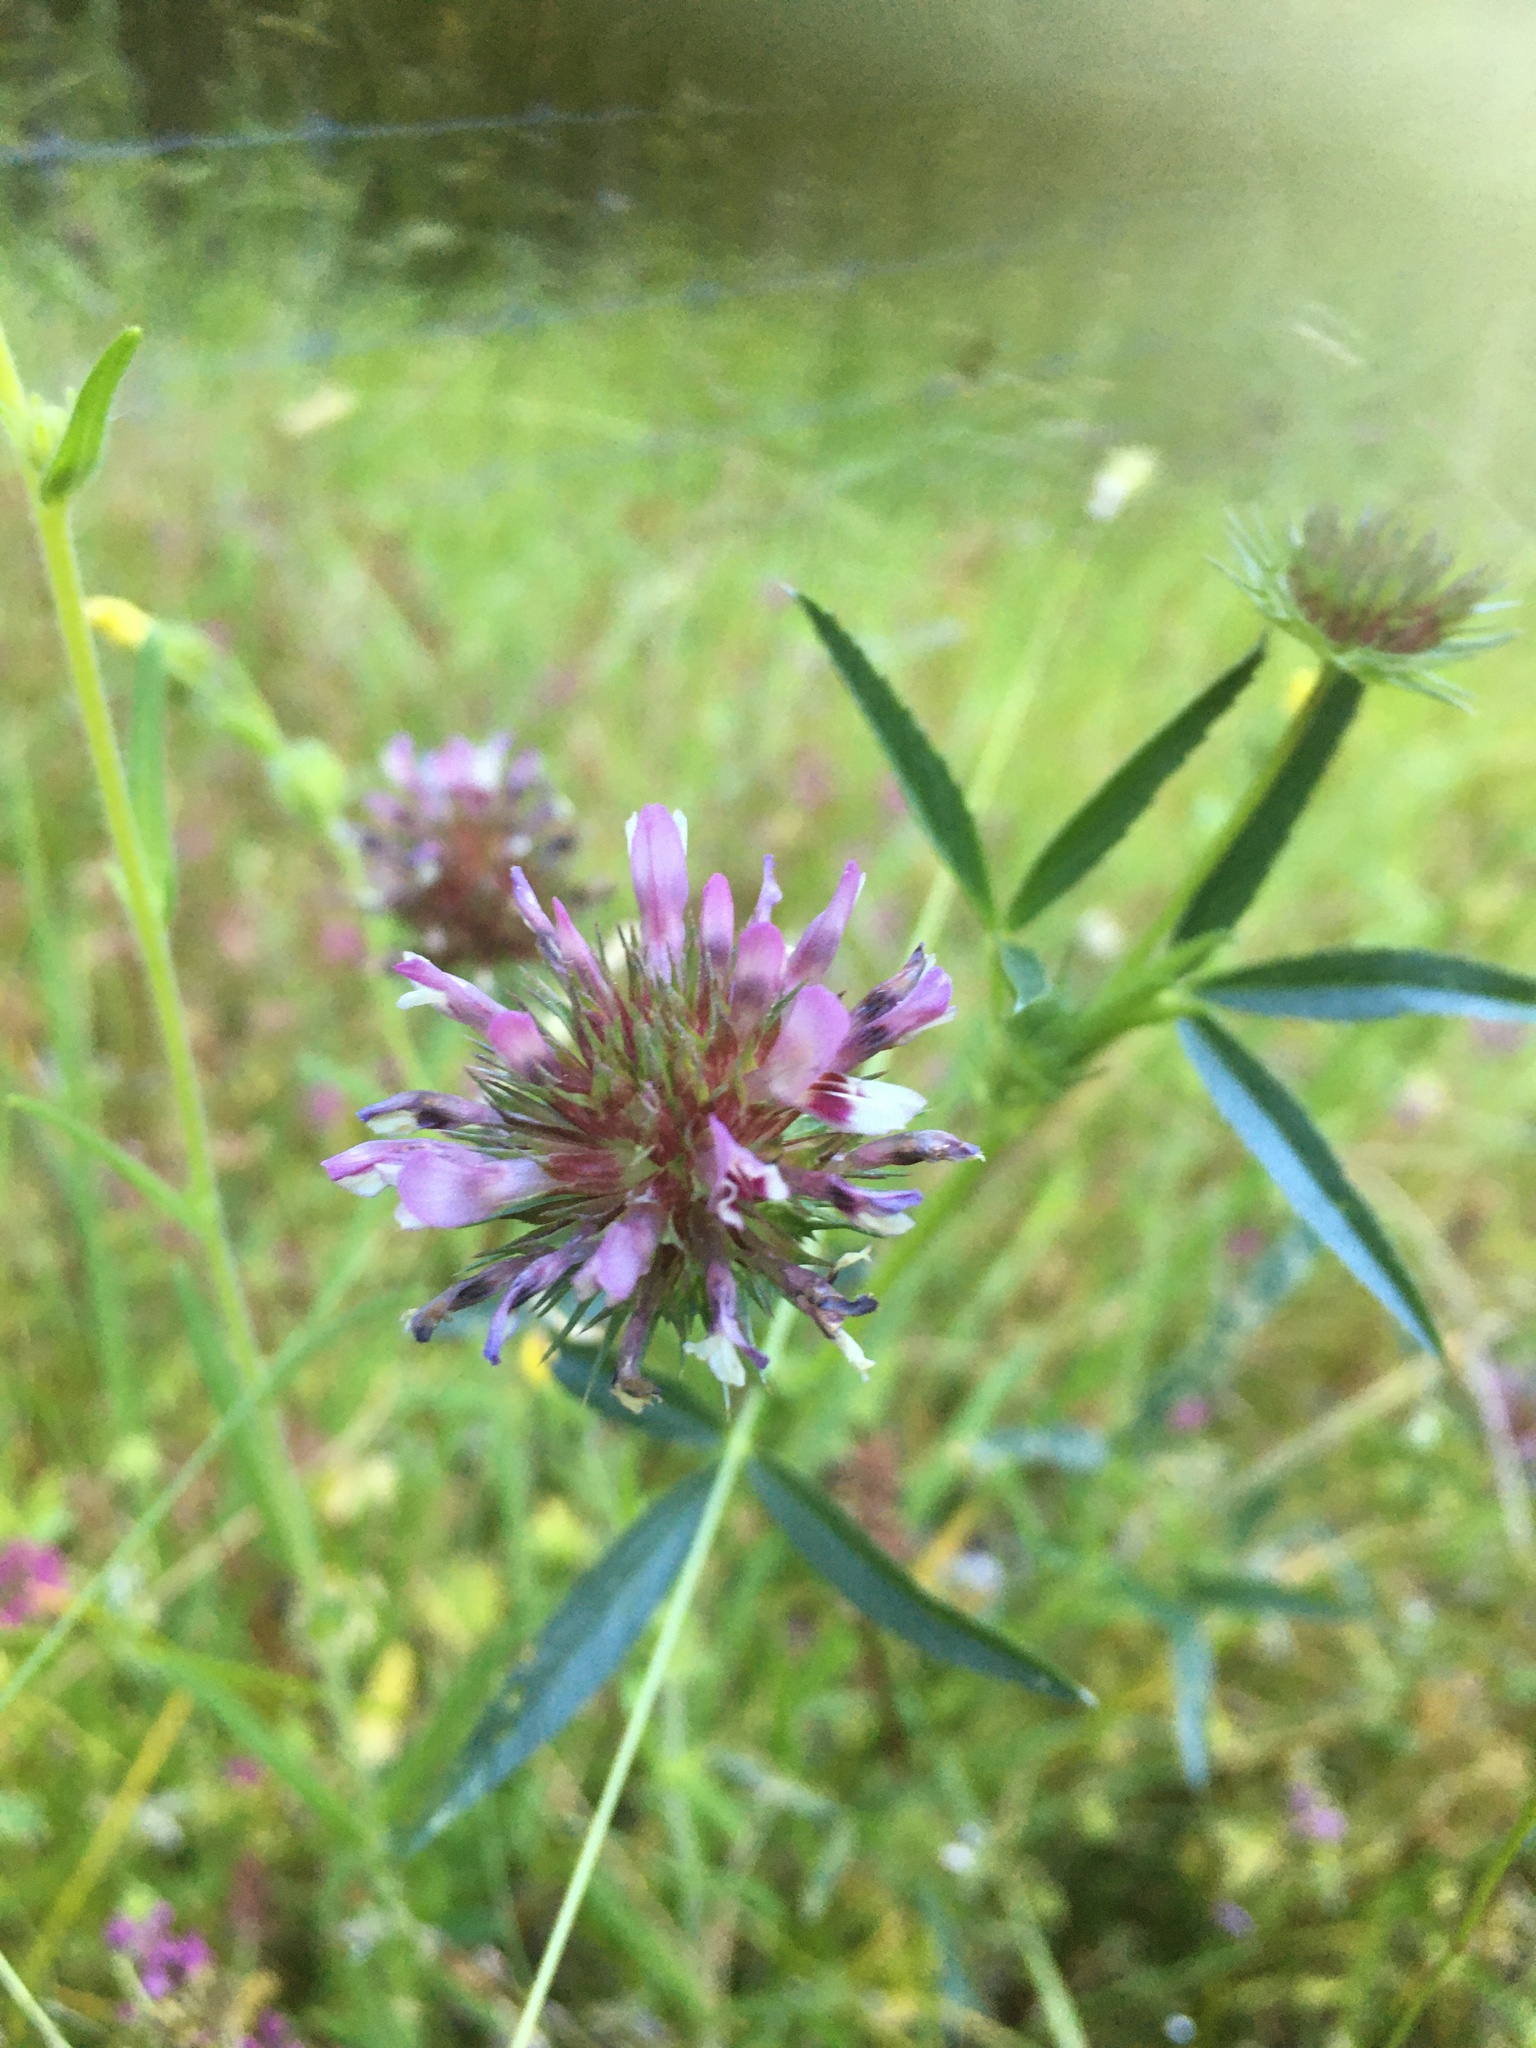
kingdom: Plantae
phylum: Tracheophyta
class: Magnoliopsida
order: Fabales
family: Fabaceae
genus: Trifolium
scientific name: Trifolium willdenovii
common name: Tomcat clover
